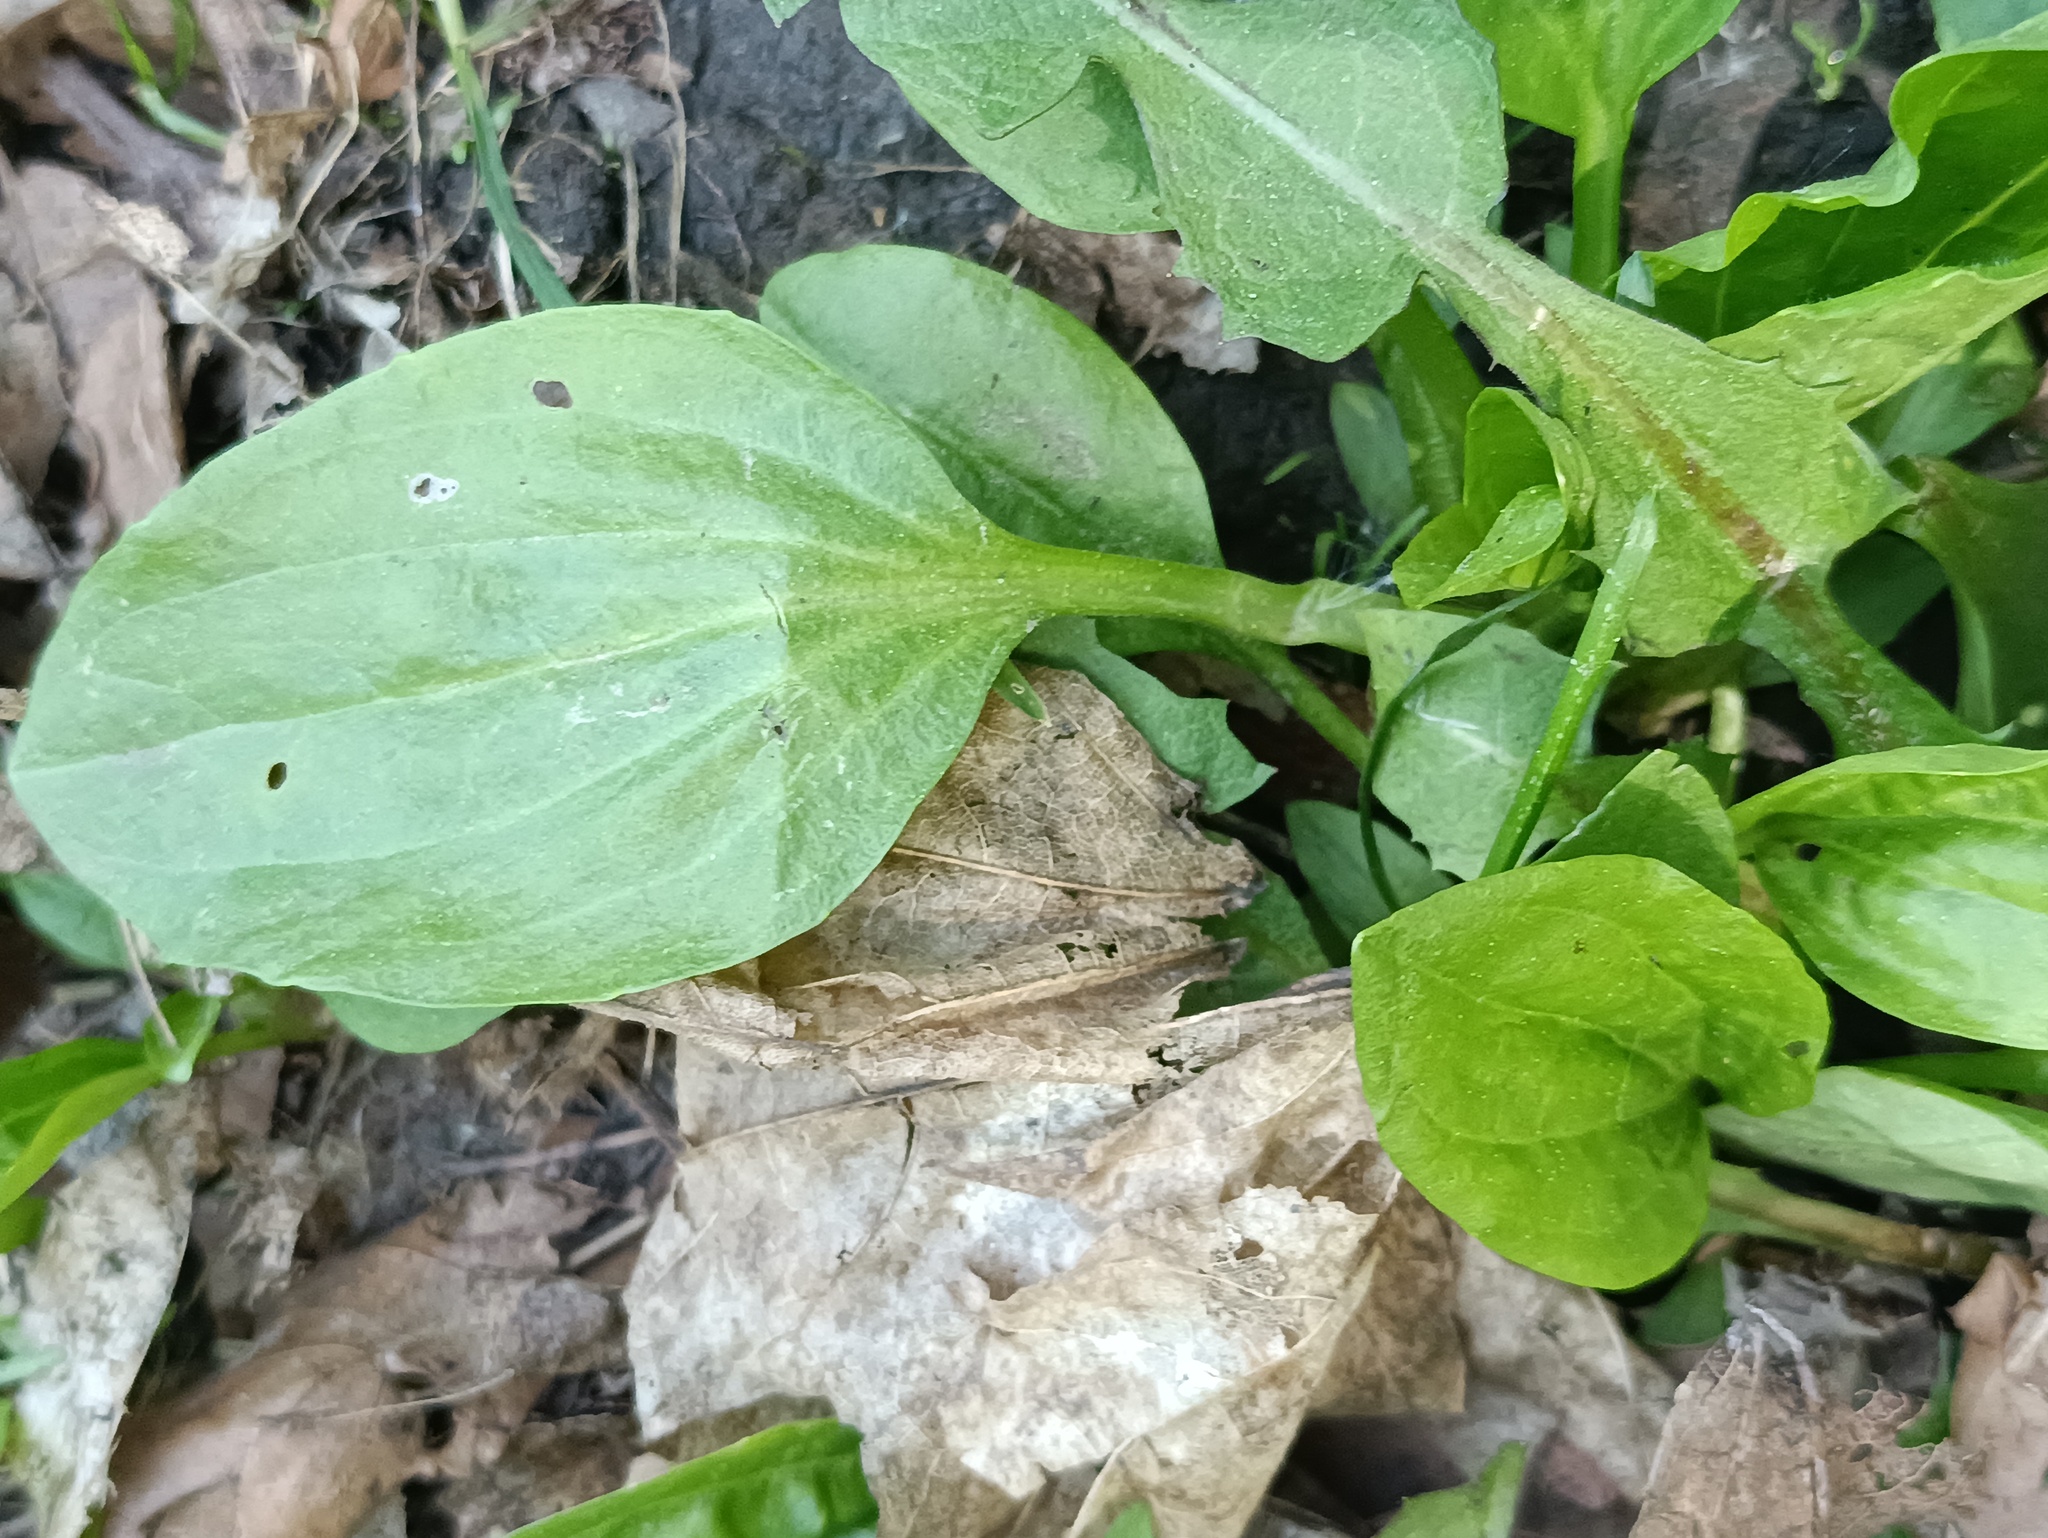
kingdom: Plantae
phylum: Tracheophyta
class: Magnoliopsida
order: Lamiales
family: Plantaginaceae
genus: Plantago
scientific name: Plantago major
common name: Common plantain
